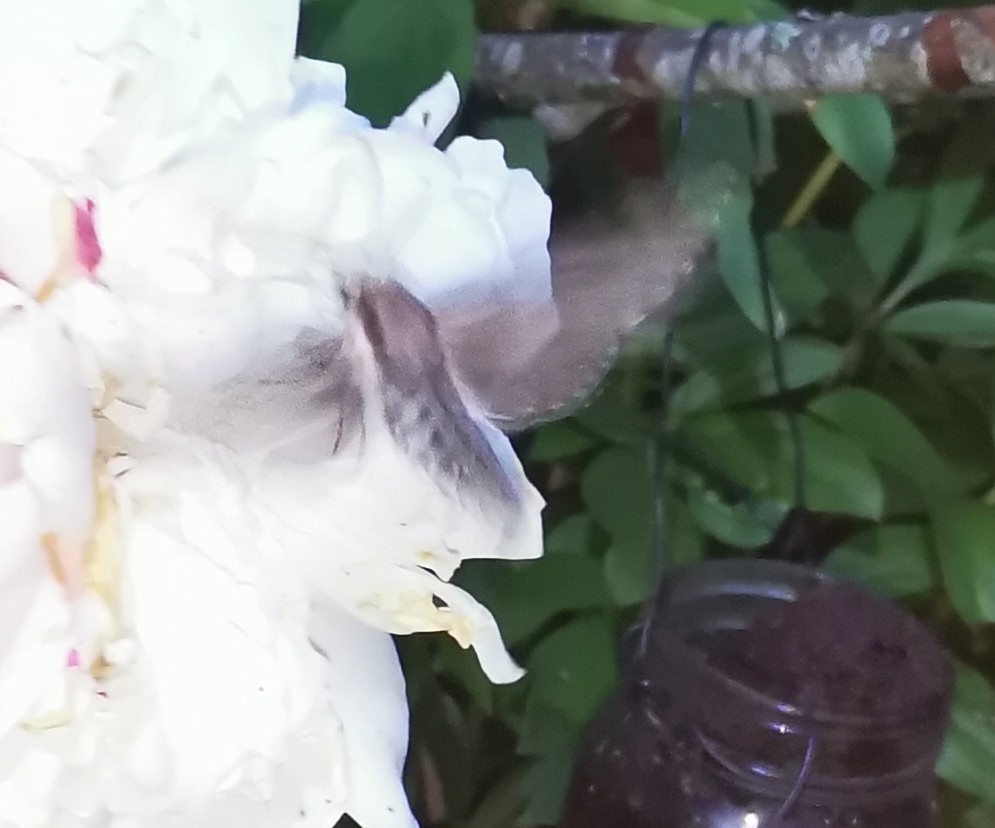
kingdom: Animalia
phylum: Arthropoda
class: Insecta
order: Lepidoptera
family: Sphingidae
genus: Sphinx
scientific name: Sphinx pinastri
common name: Pine hawk-moth
